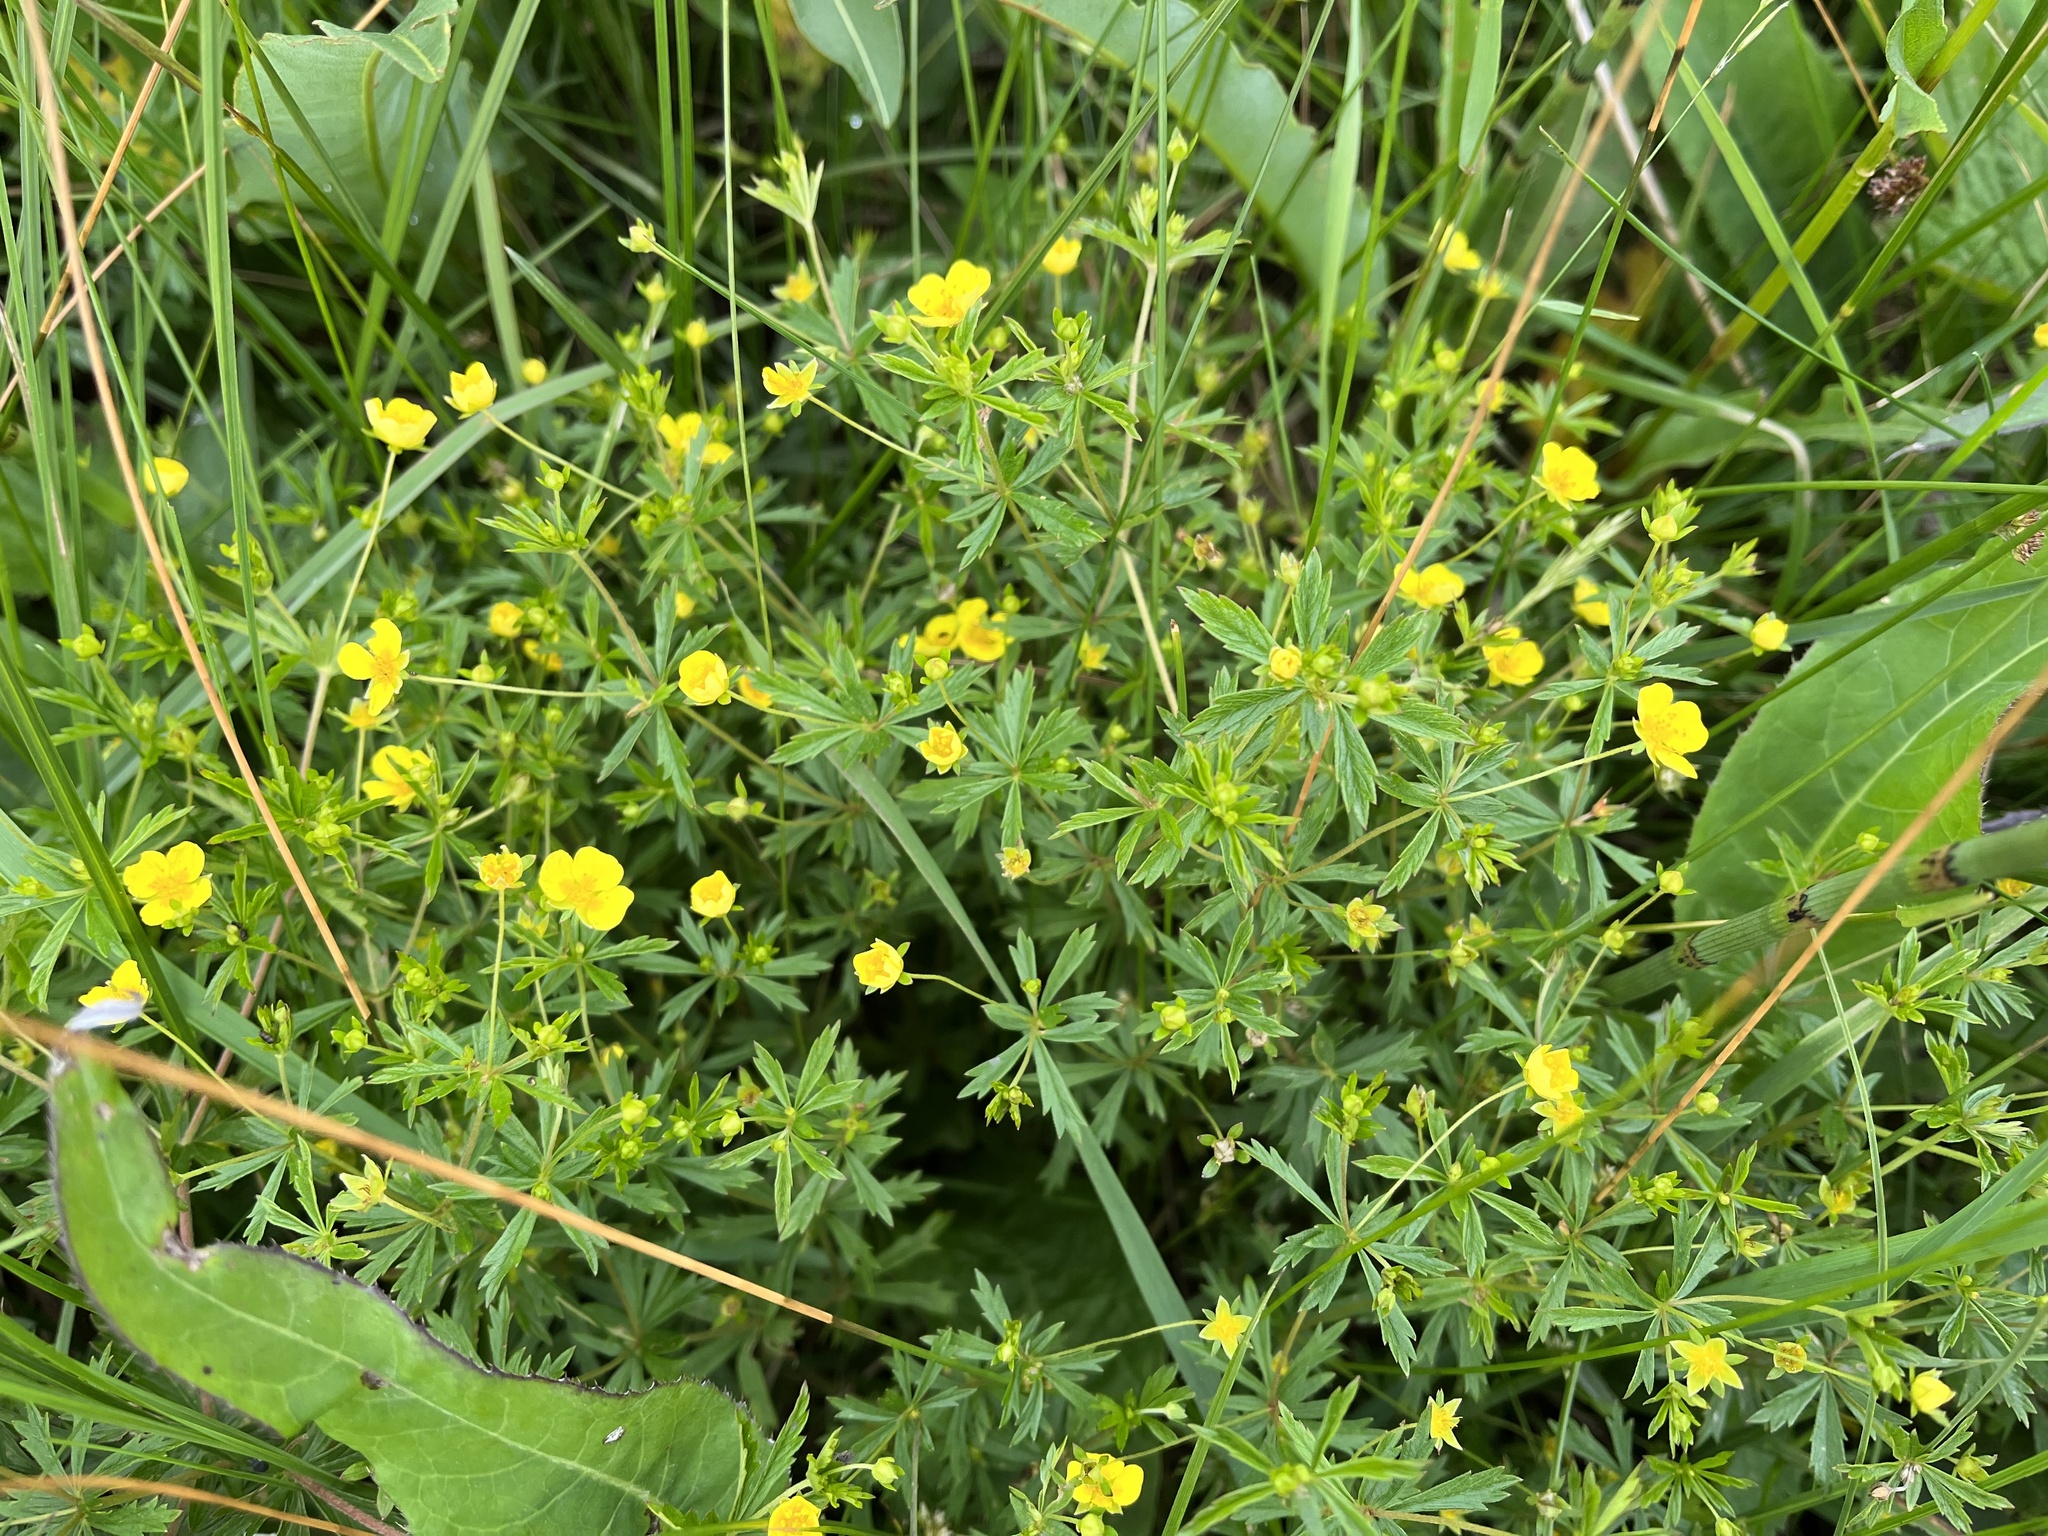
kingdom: Plantae
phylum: Tracheophyta
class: Magnoliopsida
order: Rosales
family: Rosaceae
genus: Potentilla
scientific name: Potentilla erecta
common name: Tormentil
